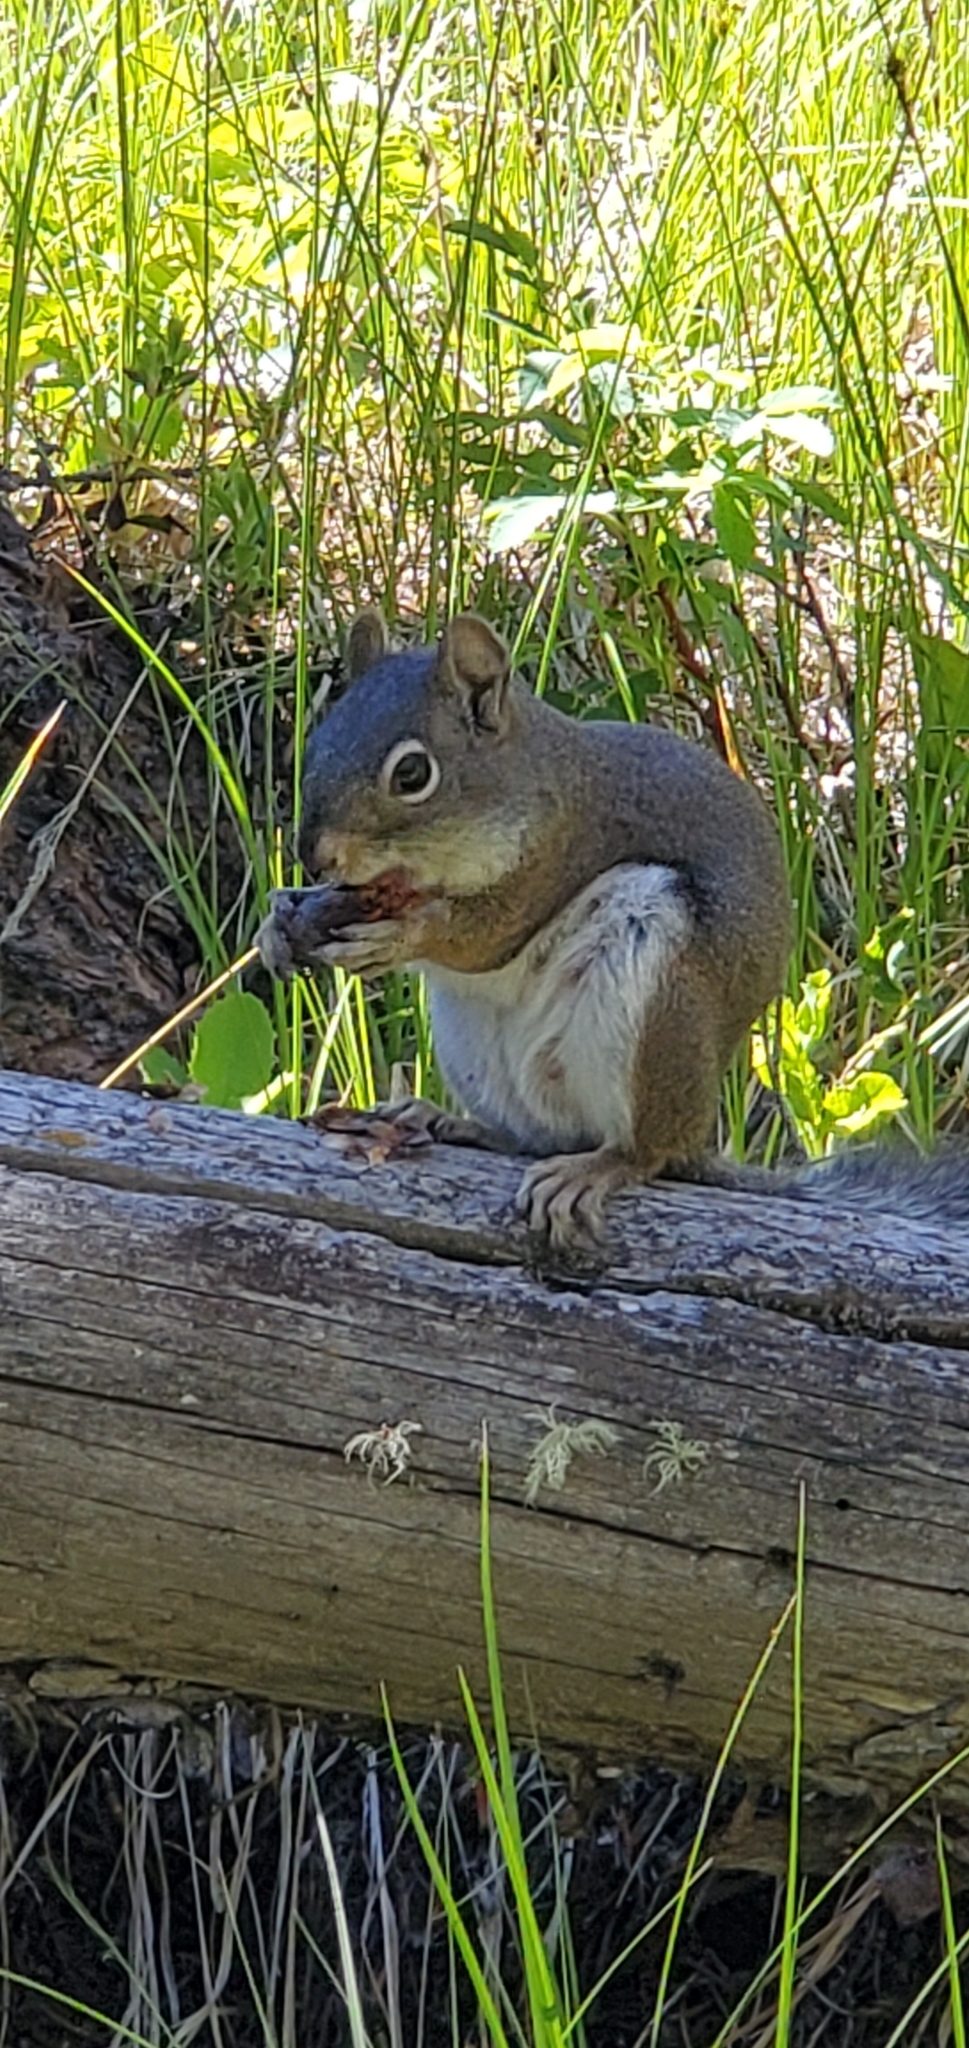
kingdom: Animalia
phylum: Chordata
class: Mammalia
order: Rodentia
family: Sciuridae
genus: Tamiasciurus
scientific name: Tamiasciurus hudsonicus
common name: Red squirrel
